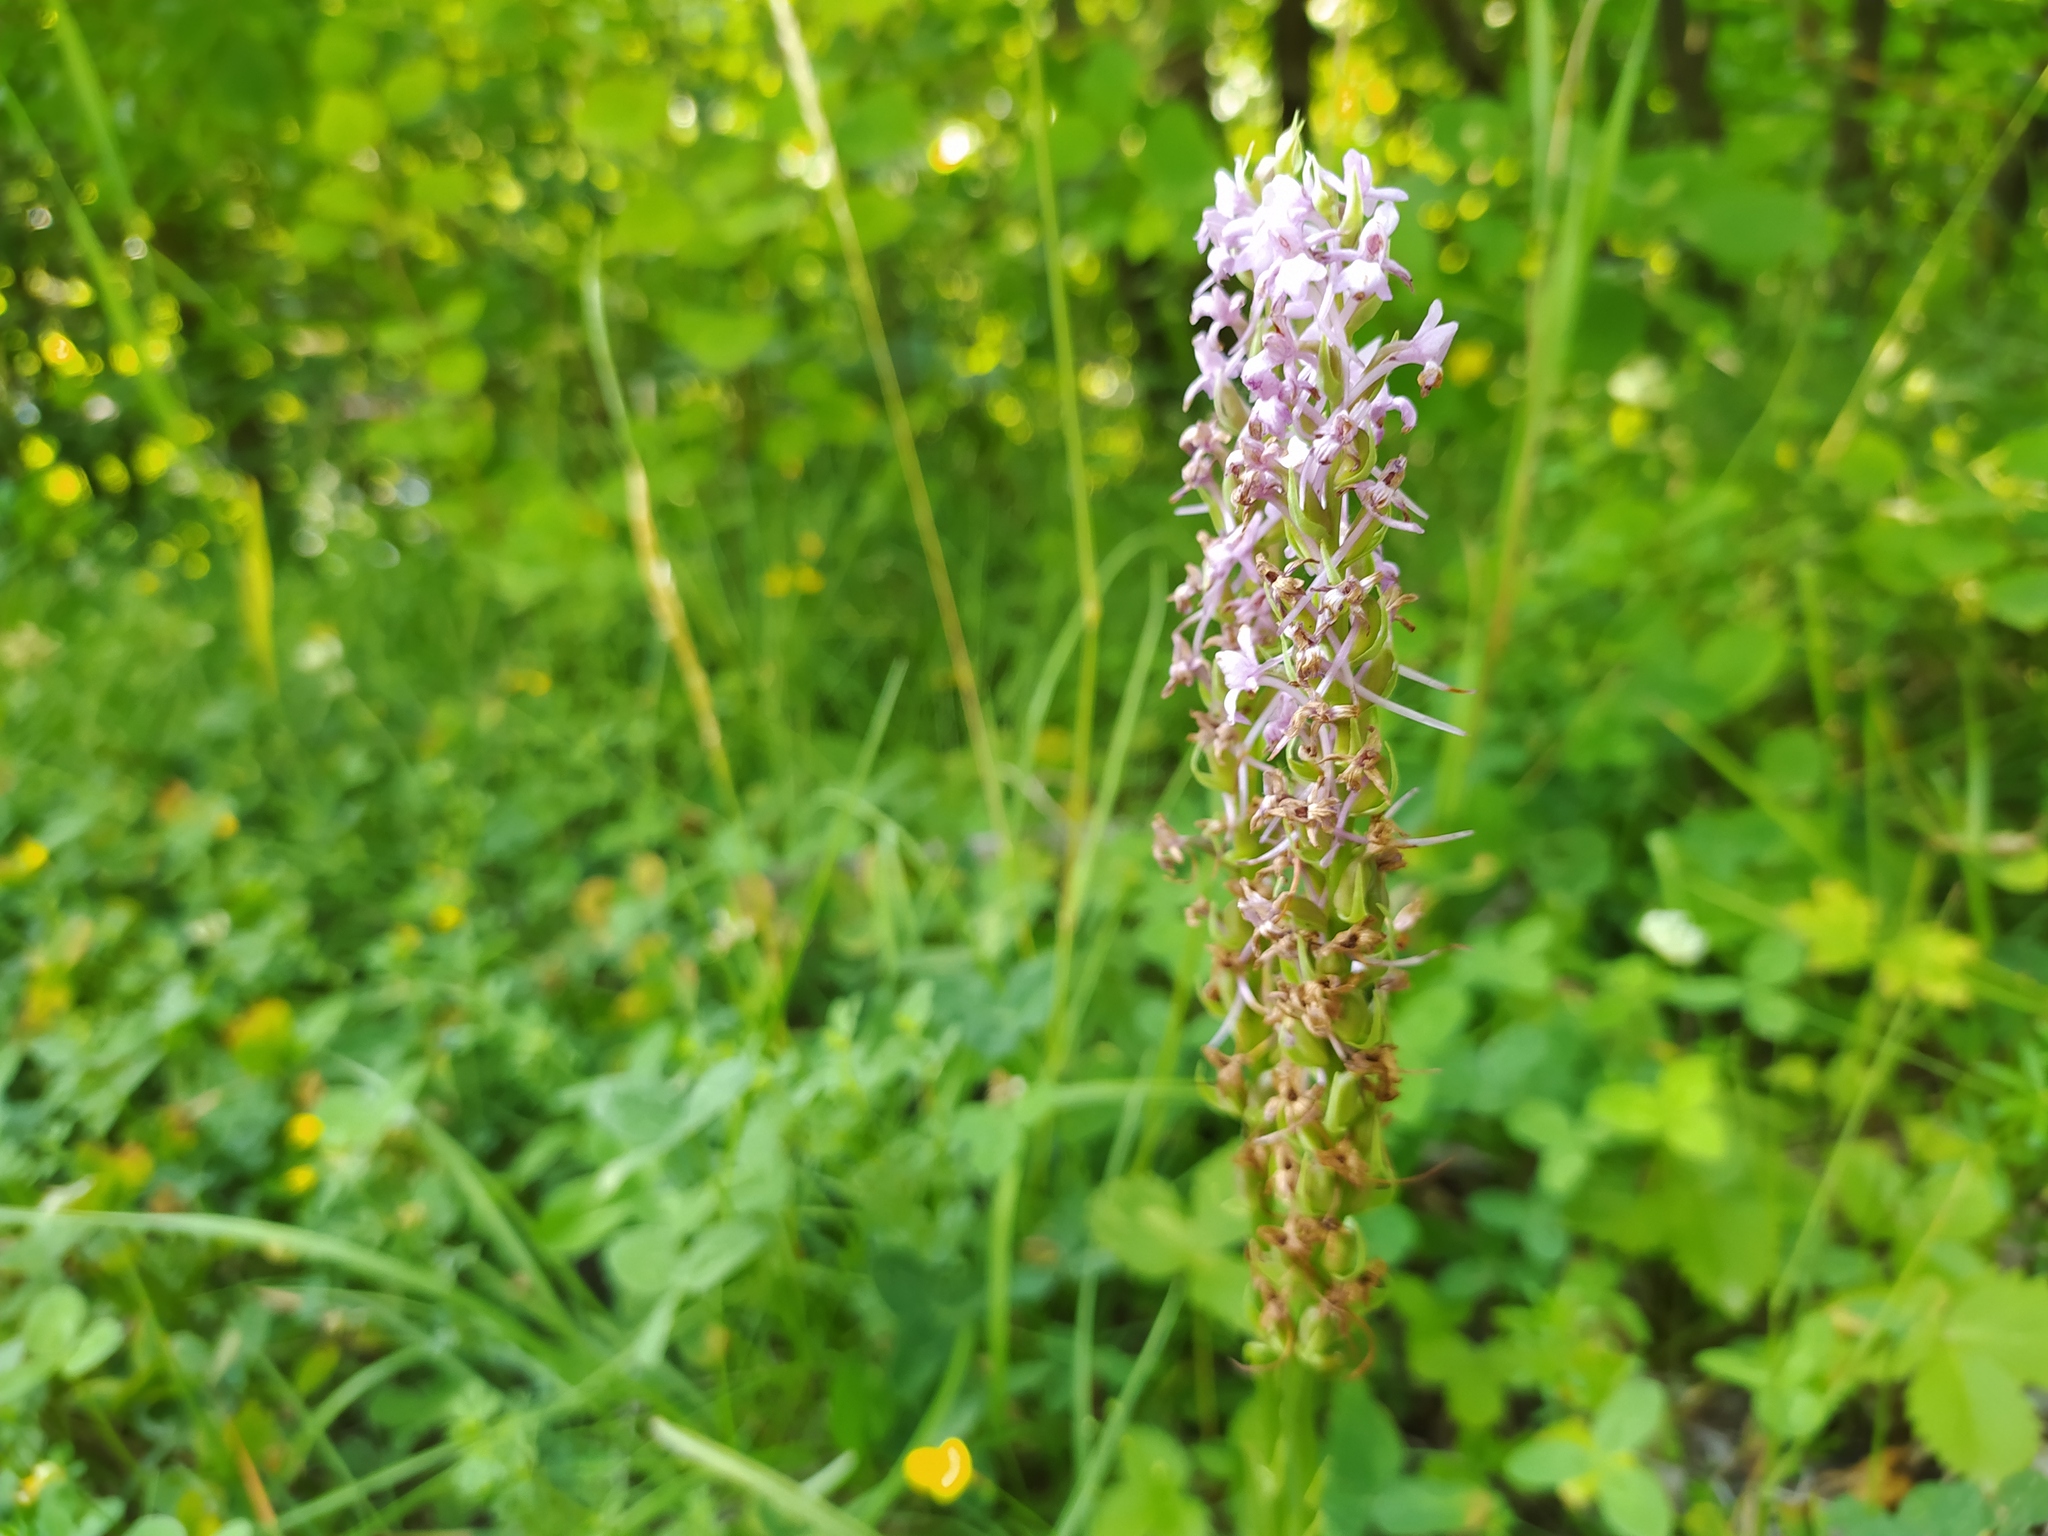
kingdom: Plantae
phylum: Tracheophyta
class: Liliopsida
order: Asparagales
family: Orchidaceae
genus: Gymnadenia
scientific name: Gymnadenia conopsea
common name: Fragrant orchid
